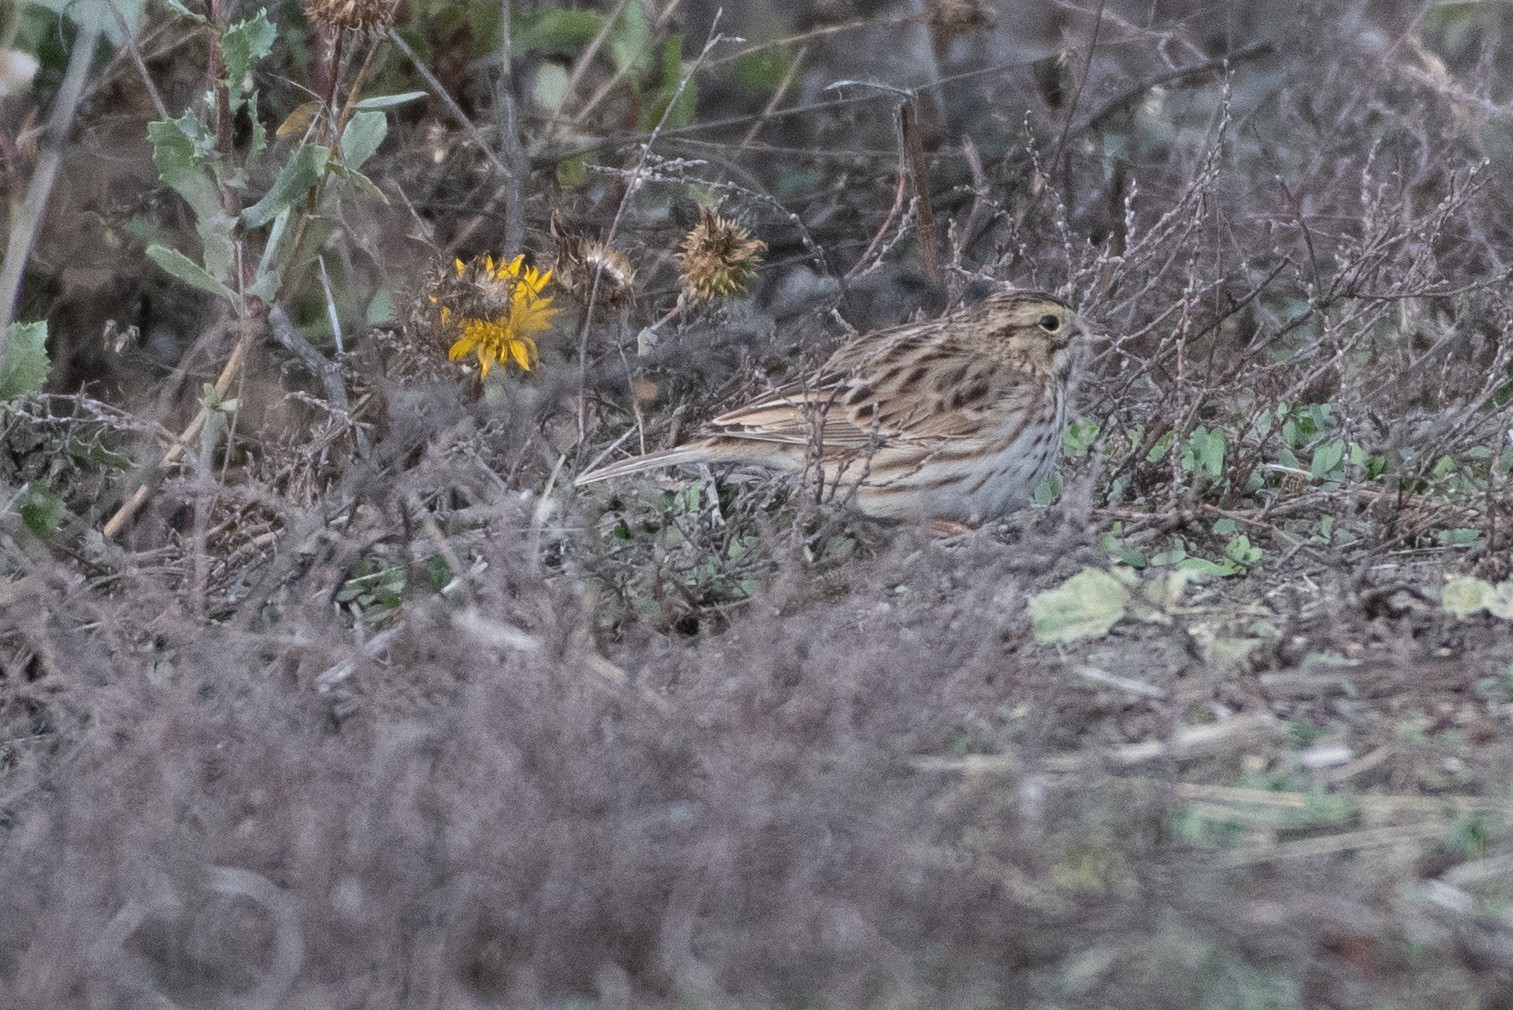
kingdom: Animalia
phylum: Chordata
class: Aves
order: Passeriformes
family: Passerellidae
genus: Passerculus
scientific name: Passerculus sandwichensis
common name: Savannah sparrow
